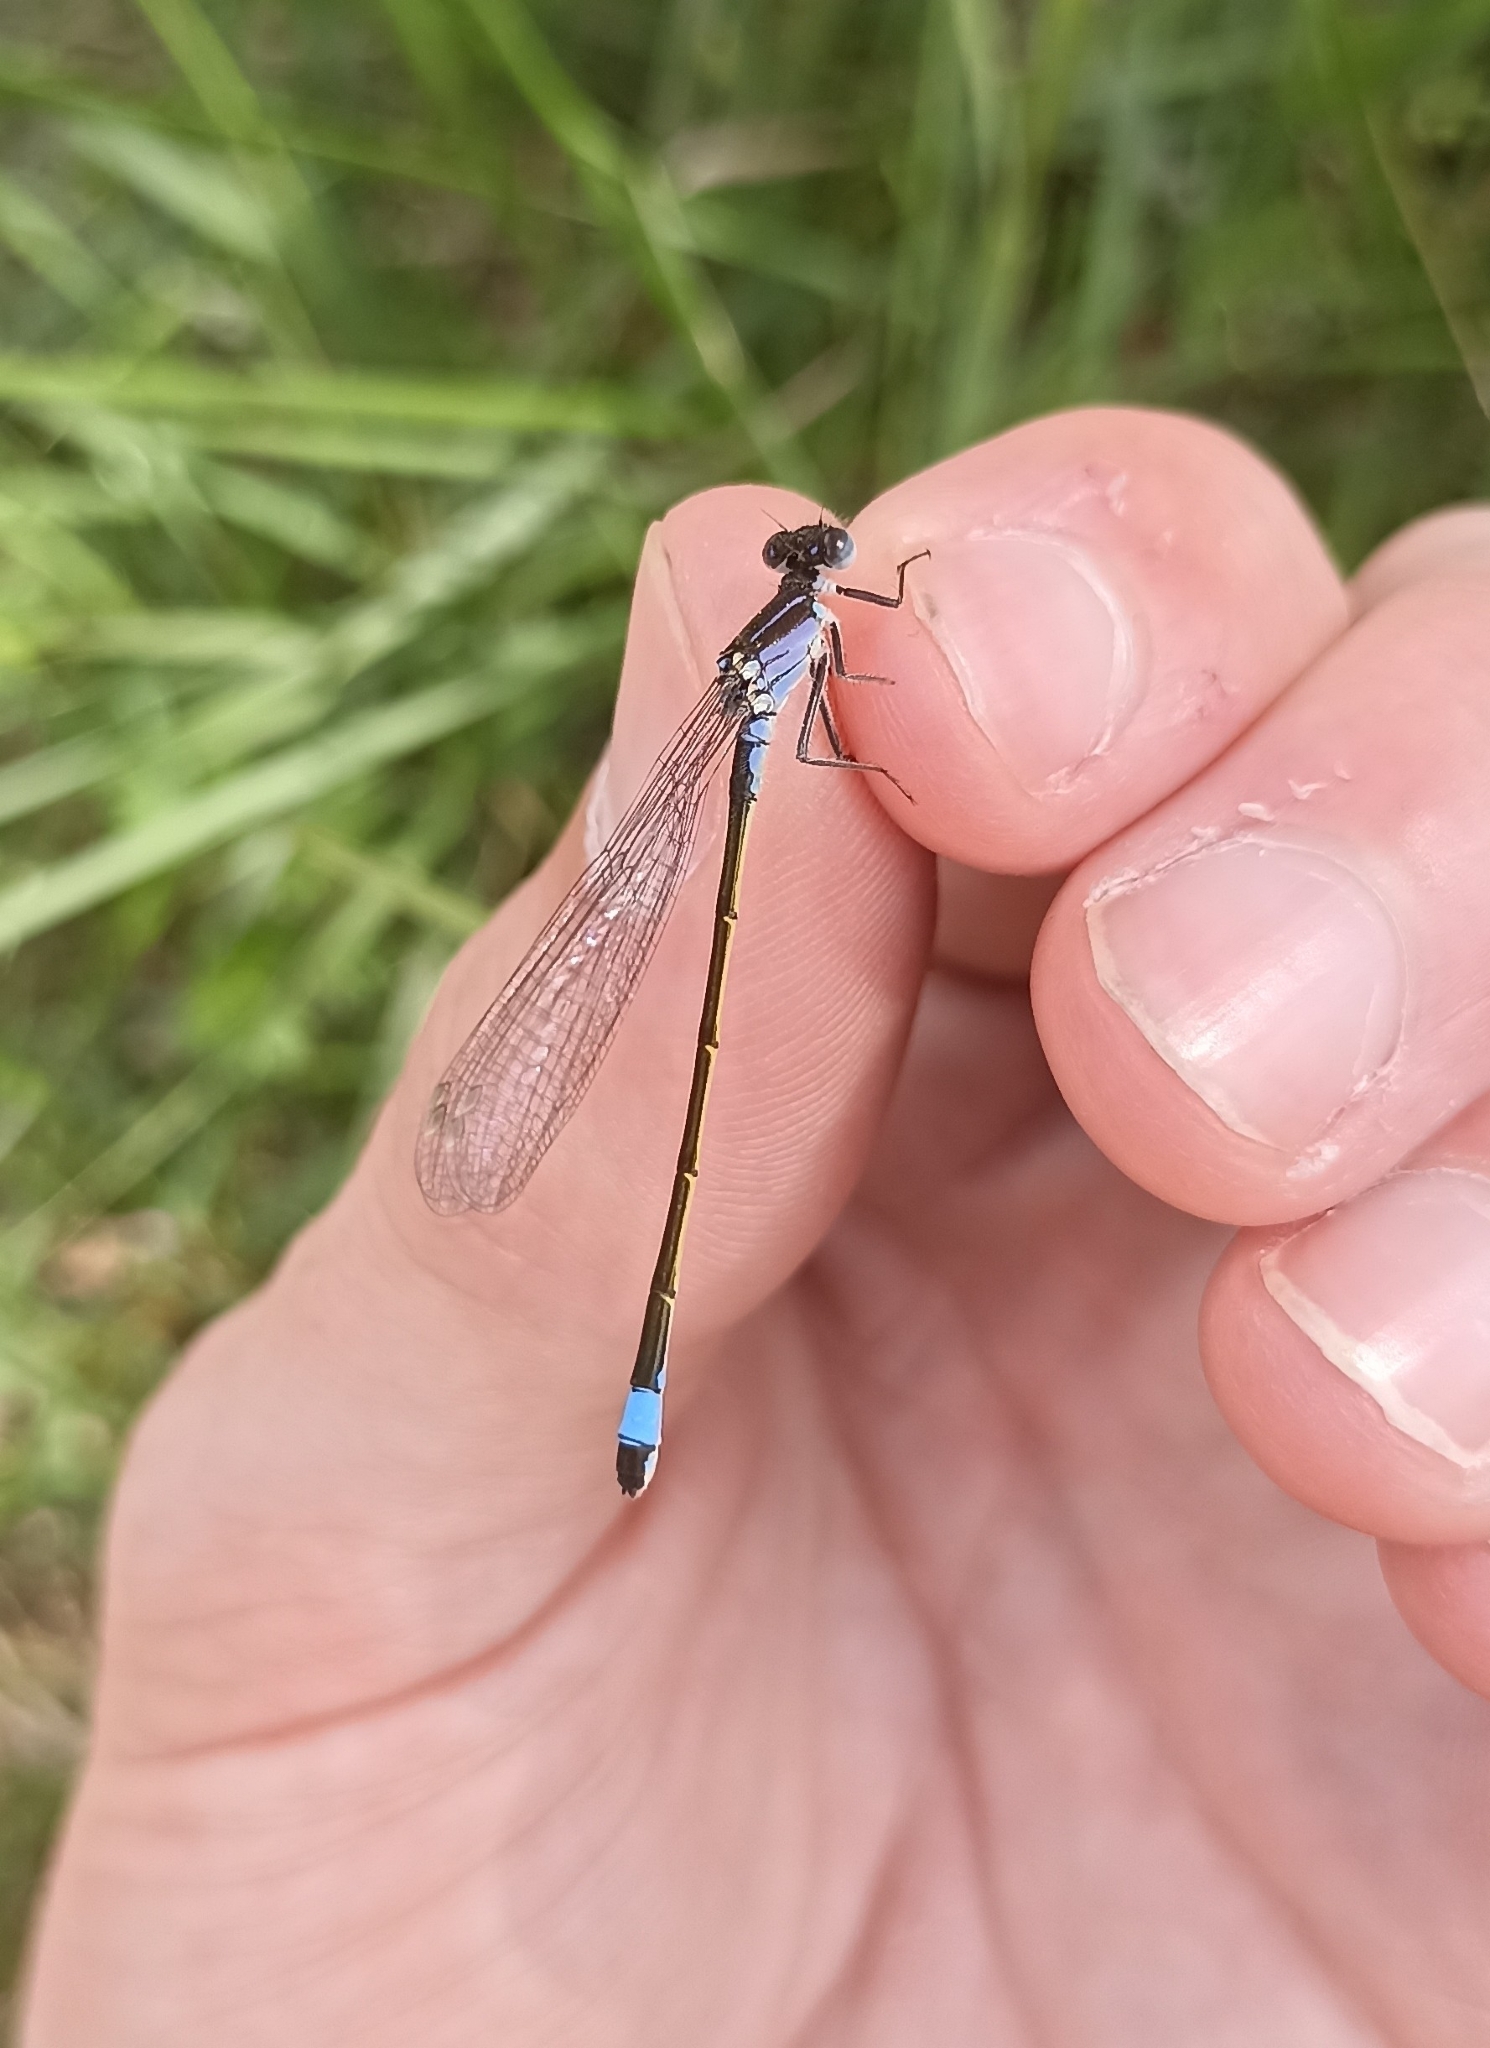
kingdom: Animalia
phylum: Arthropoda
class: Insecta
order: Odonata
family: Coenagrionidae
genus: Ischnura
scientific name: Ischnura elegans
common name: Blue-tailed damselfly
